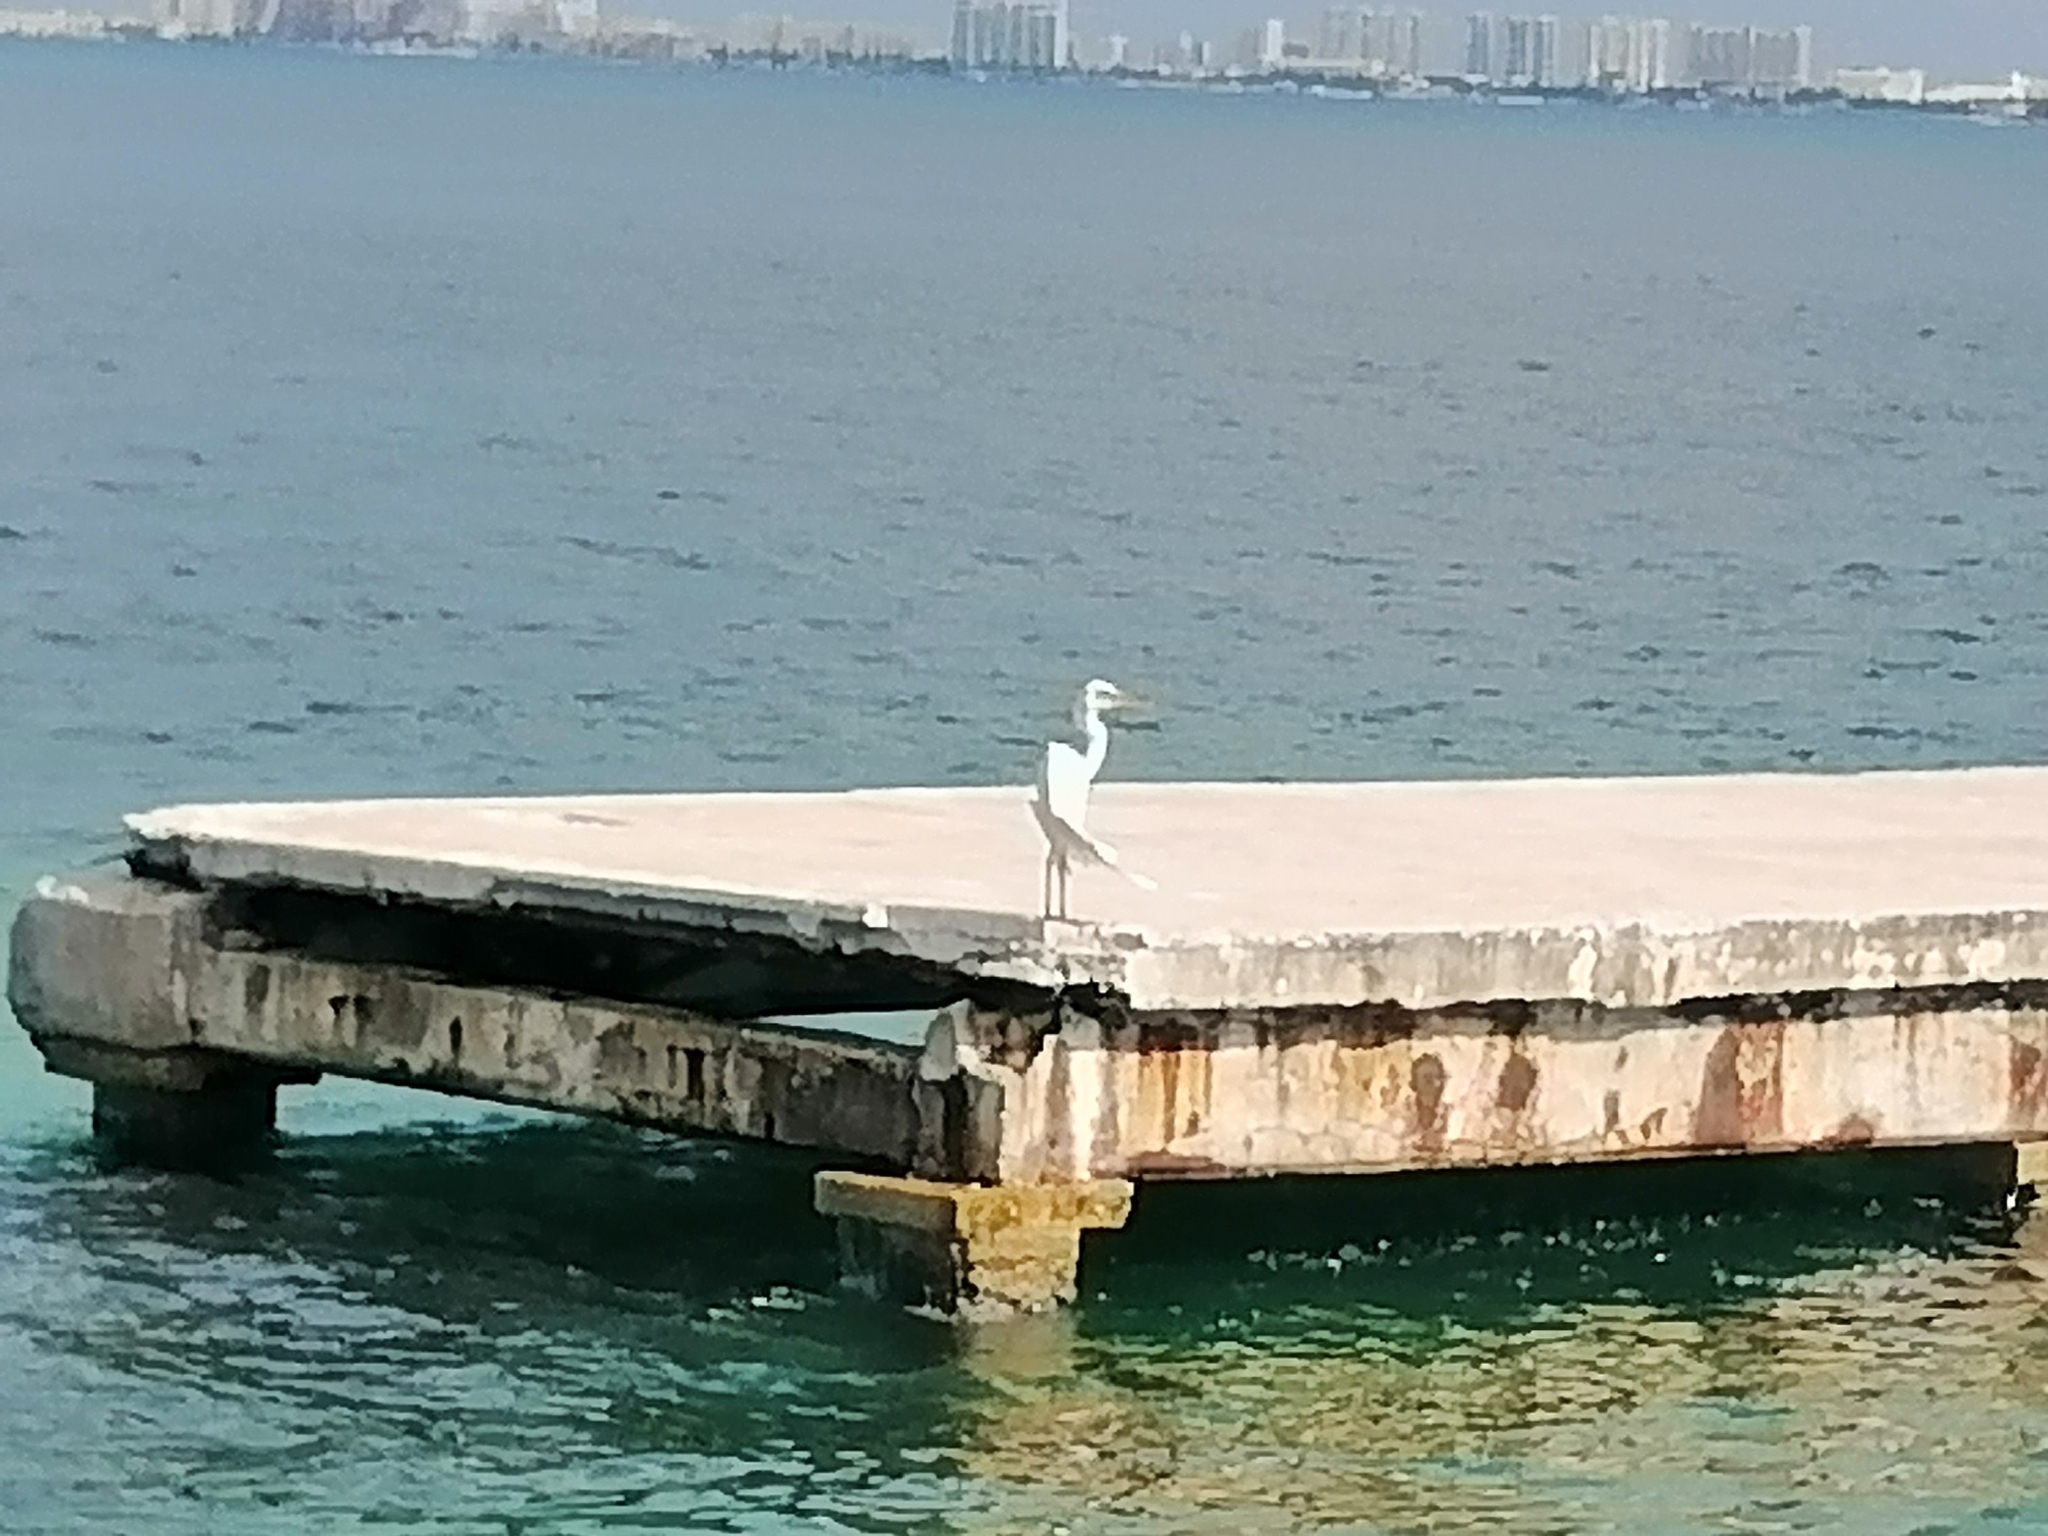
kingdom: Animalia
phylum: Chordata
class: Aves
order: Pelecaniformes
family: Ardeidae
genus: Ardea
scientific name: Ardea herodias
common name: Great blue heron
